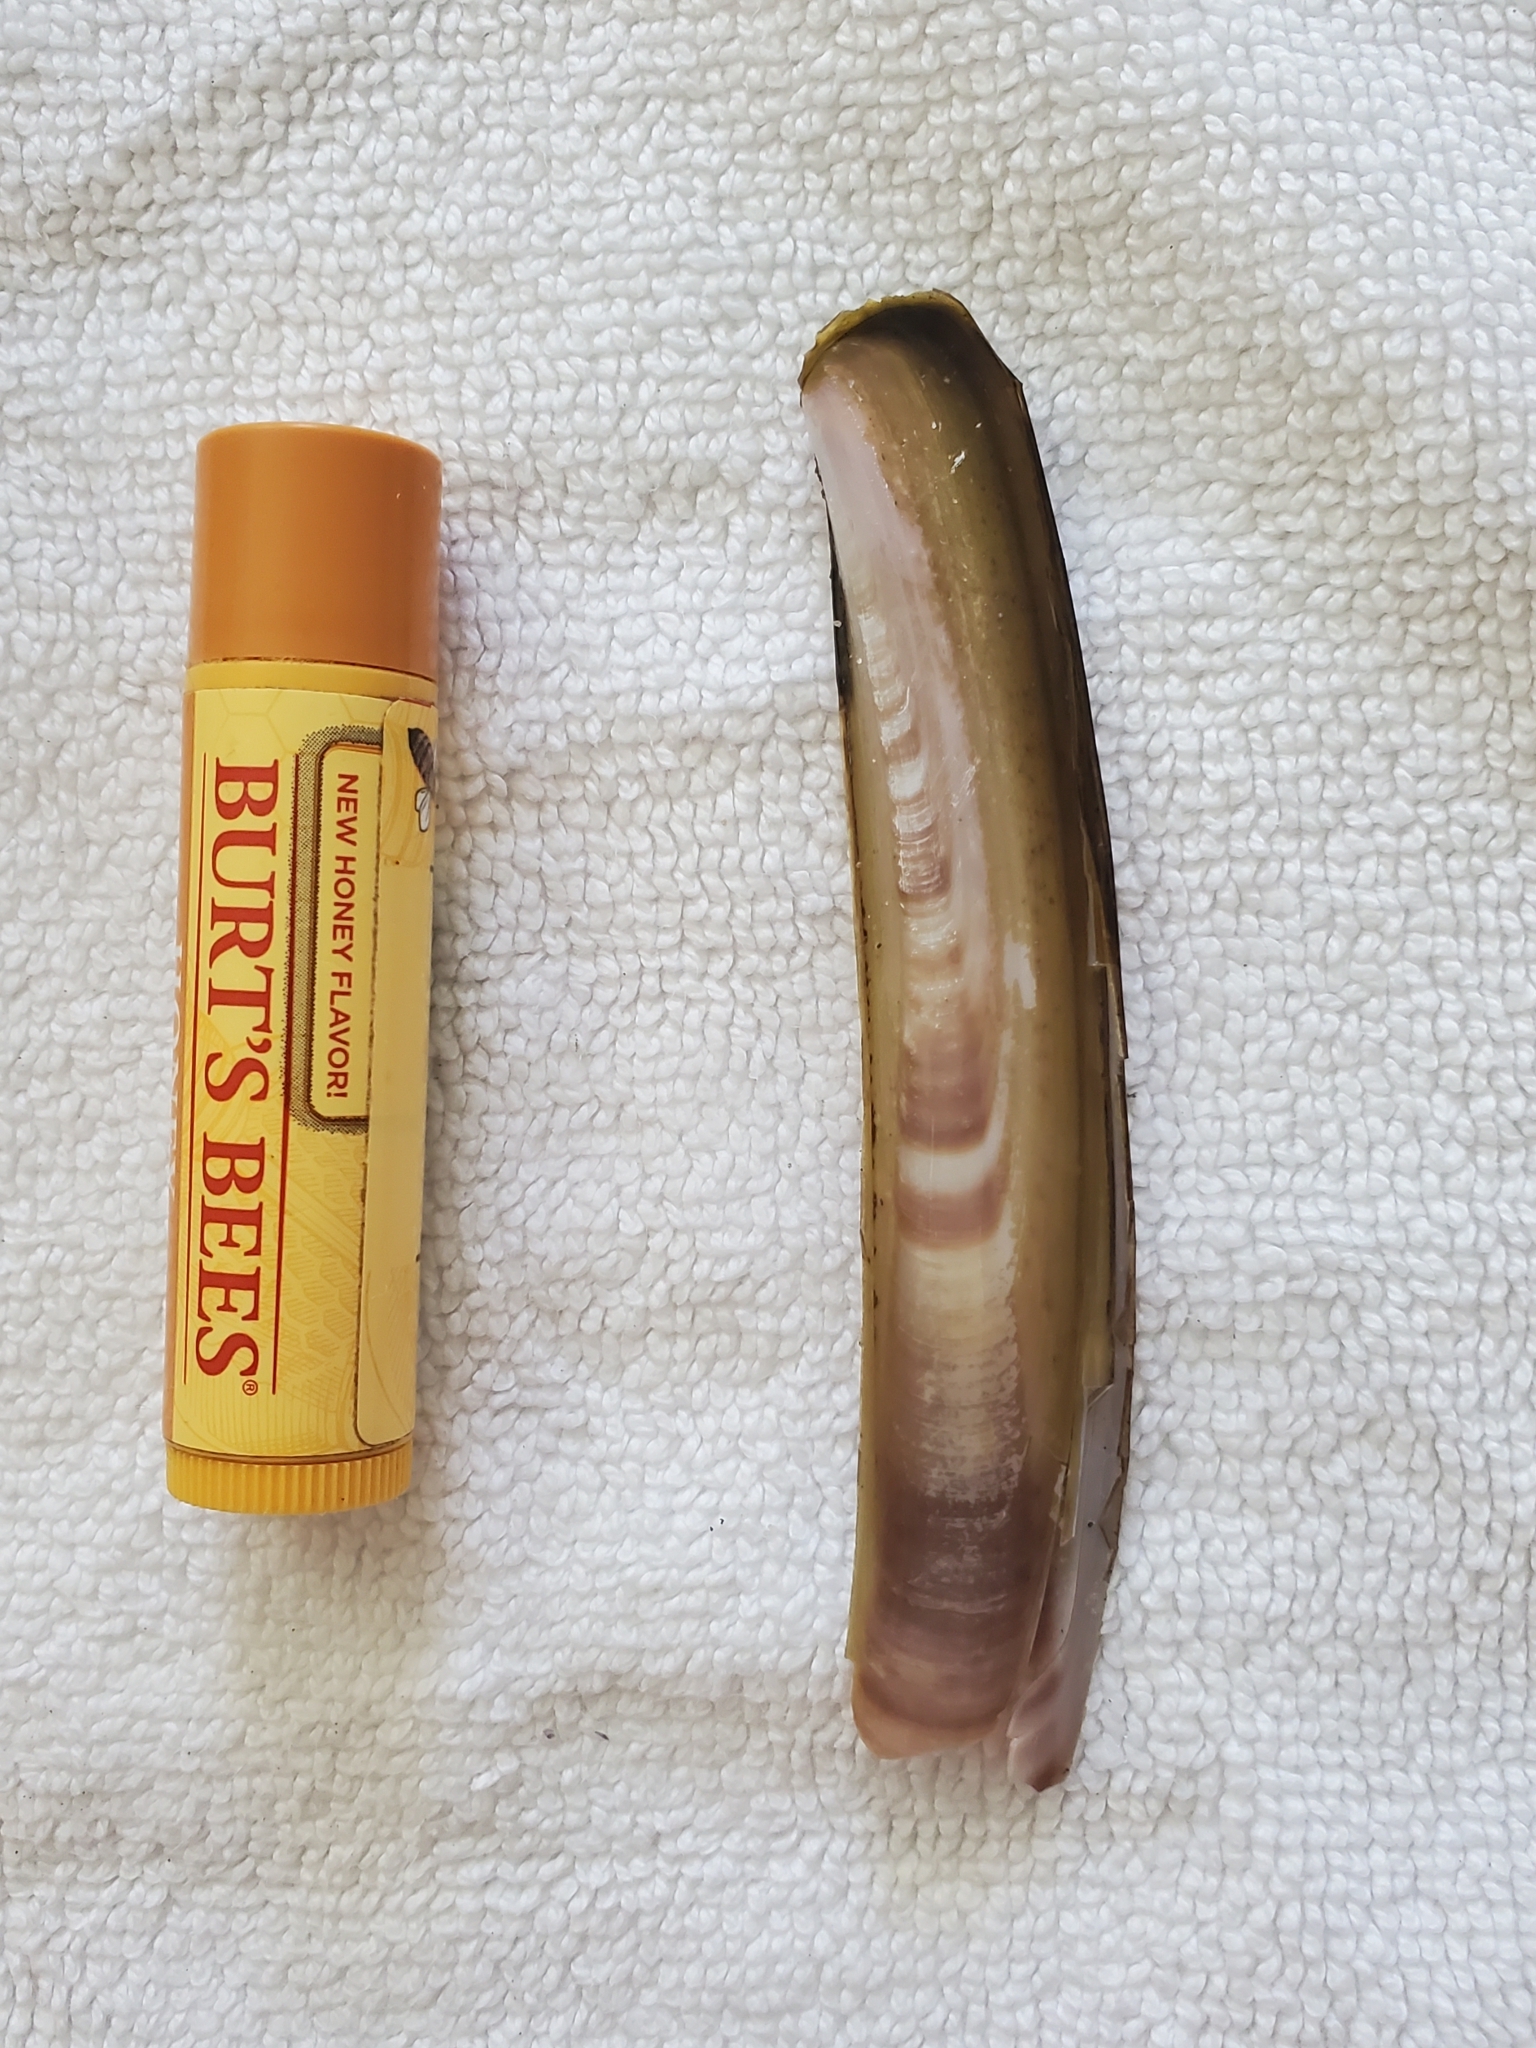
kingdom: Animalia
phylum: Mollusca
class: Bivalvia
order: Adapedonta
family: Pharidae
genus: Ensis
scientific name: Ensis leei
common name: American jack knife clam
